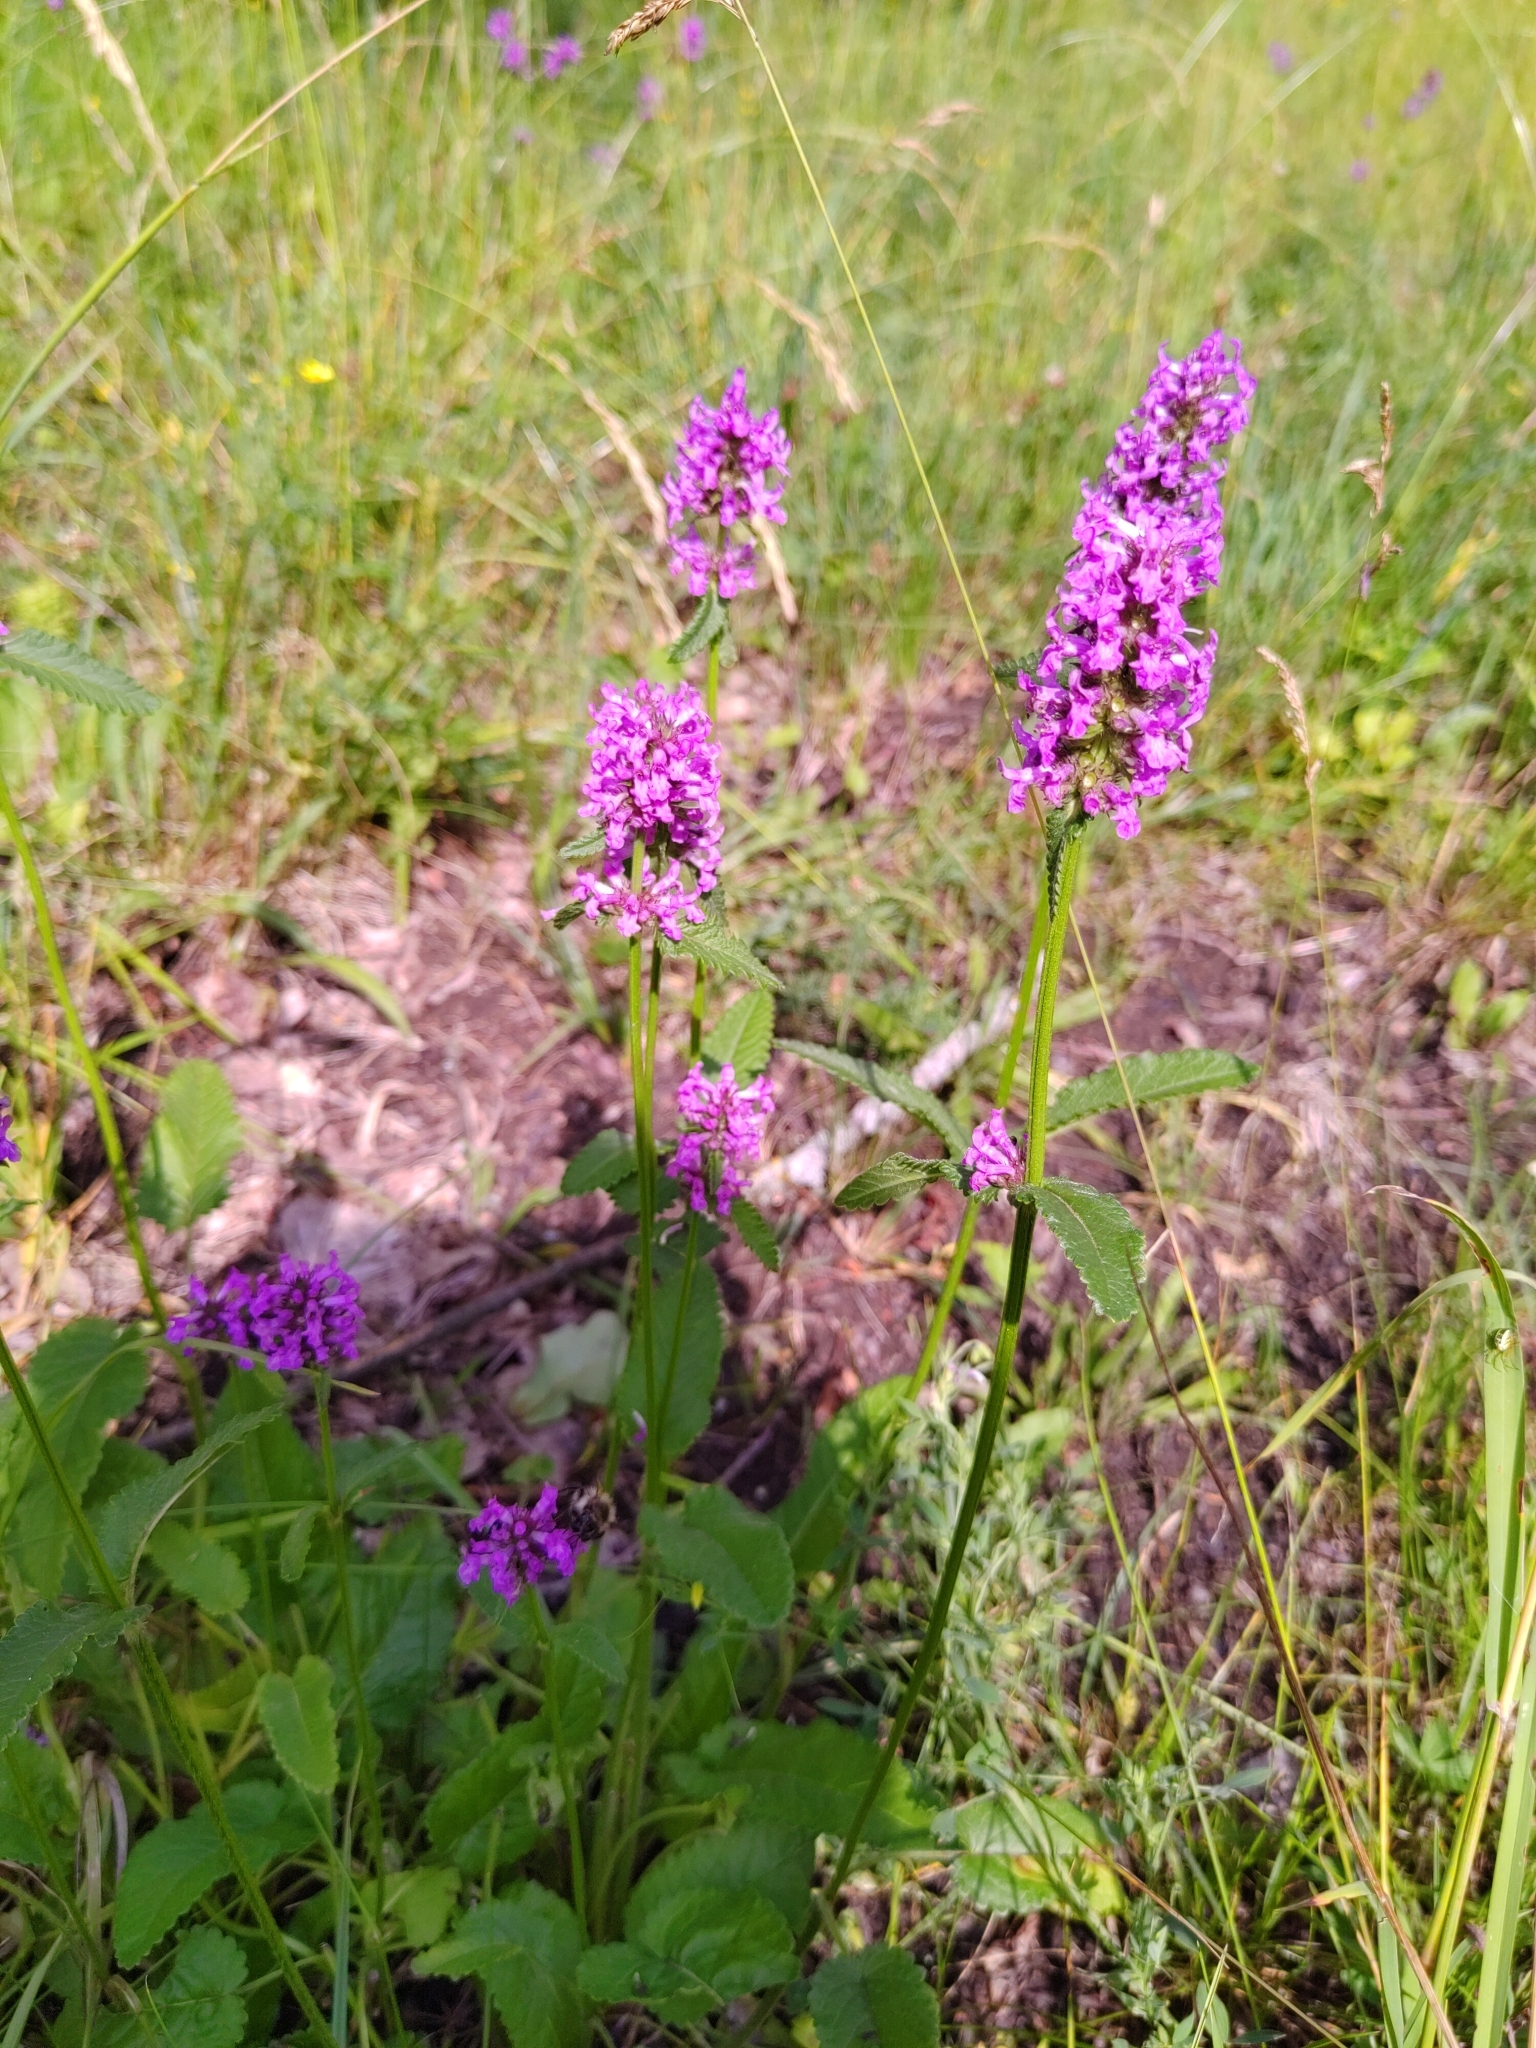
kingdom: Plantae
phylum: Tracheophyta
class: Magnoliopsida
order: Lamiales
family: Lamiaceae
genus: Betonica
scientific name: Betonica officinalis
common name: Bishop's-wort
